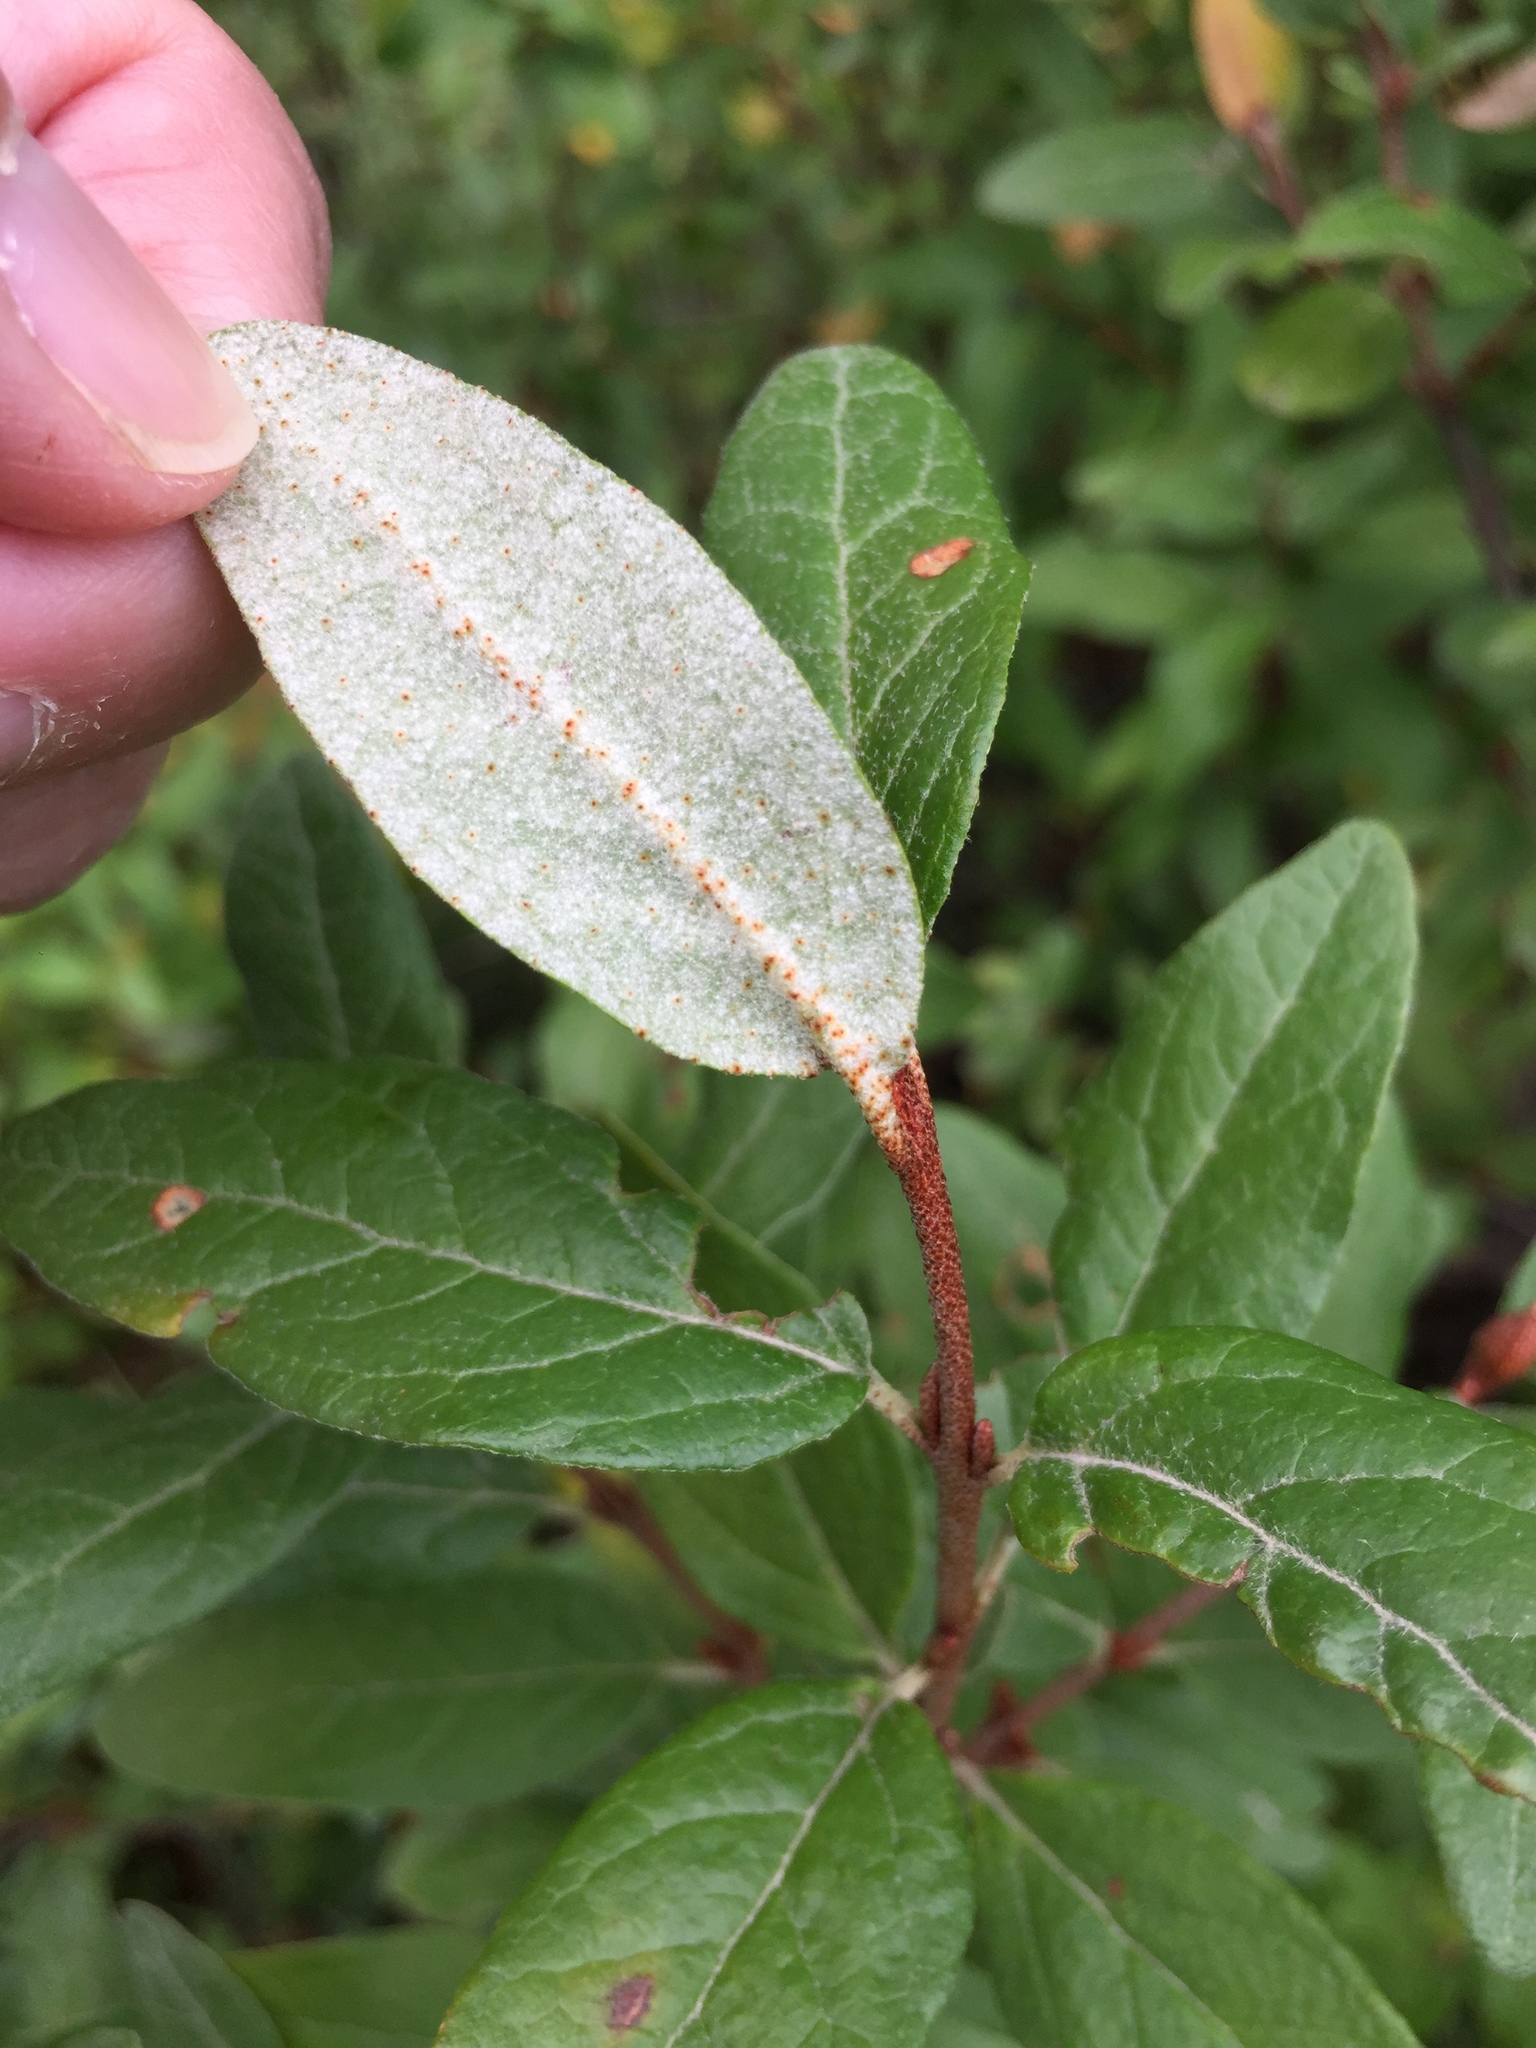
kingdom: Plantae
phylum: Tracheophyta
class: Magnoliopsida
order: Rosales
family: Elaeagnaceae
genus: Shepherdia
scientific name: Shepherdia canadensis
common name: Soapberry
